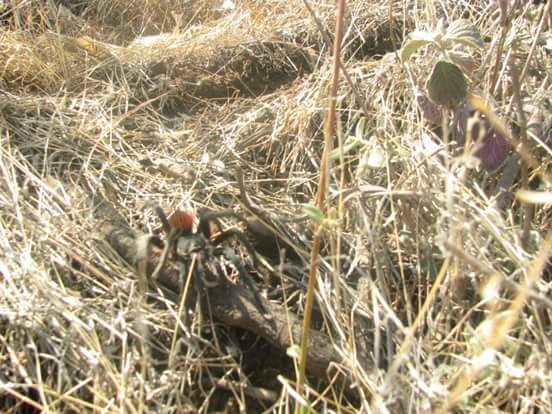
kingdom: Animalia
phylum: Arthropoda
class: Arachnida
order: Araneae
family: Theraphosidae
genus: Aphonopelma
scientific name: Aphonopelma caniceps
